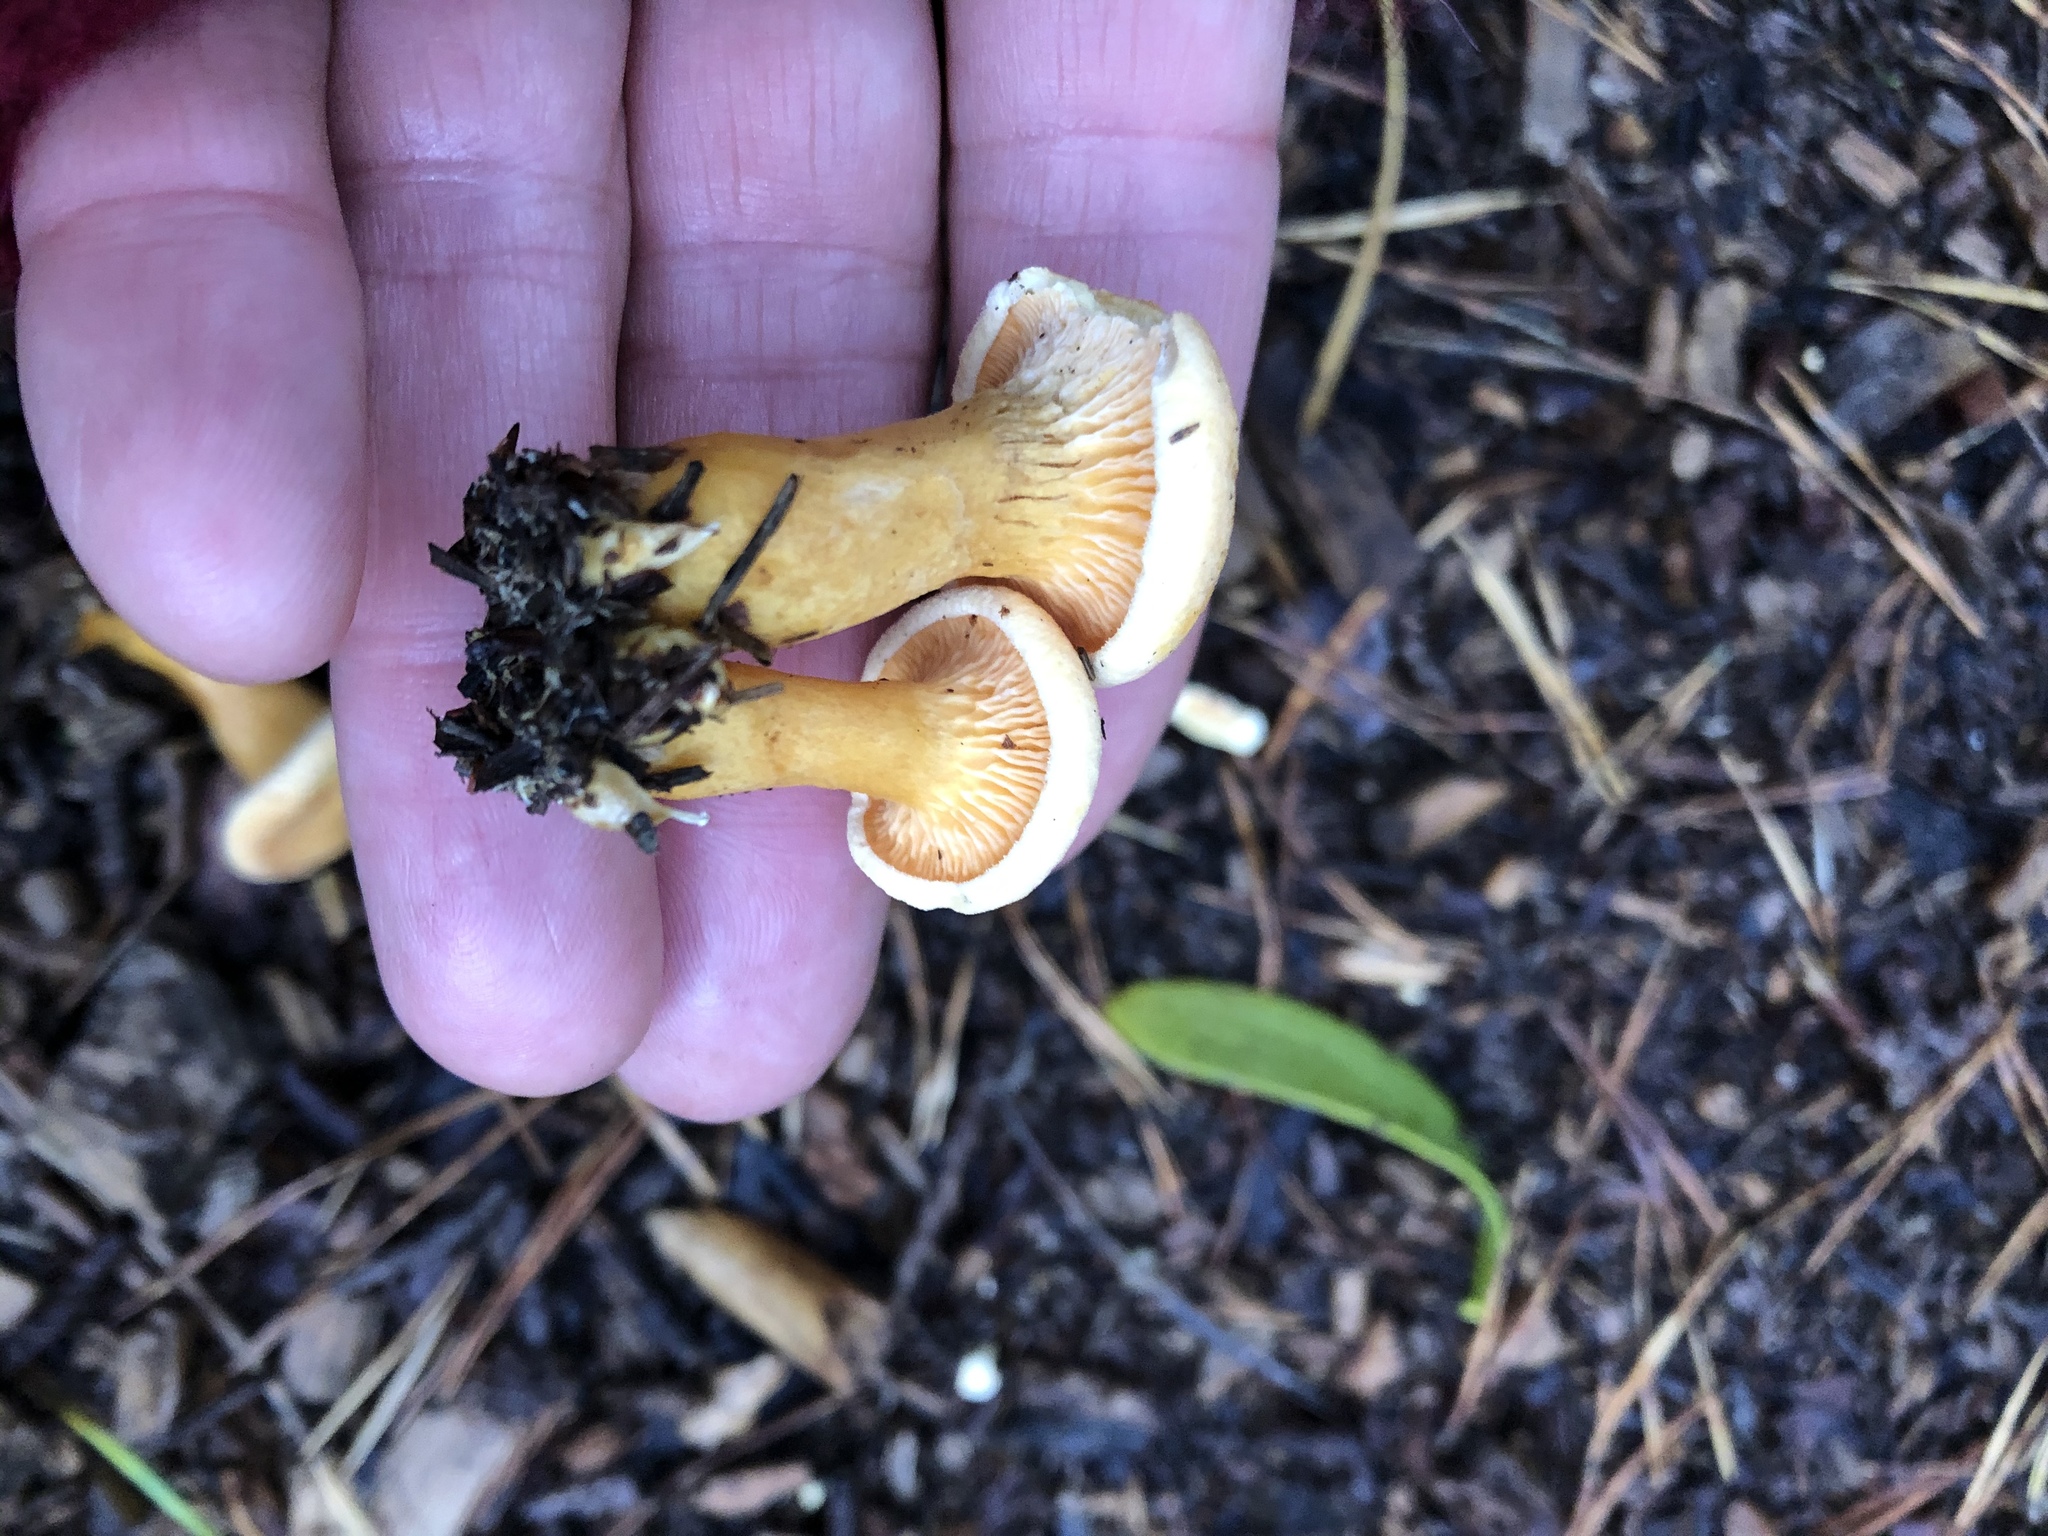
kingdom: Fungi
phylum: Basidiomycota
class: Agaricomycetes
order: Boletales
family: Hygrophoropsidaceae
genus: Hygrophoropsis
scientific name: Hygrophoropsis aurantiaca
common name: False chanterelle
